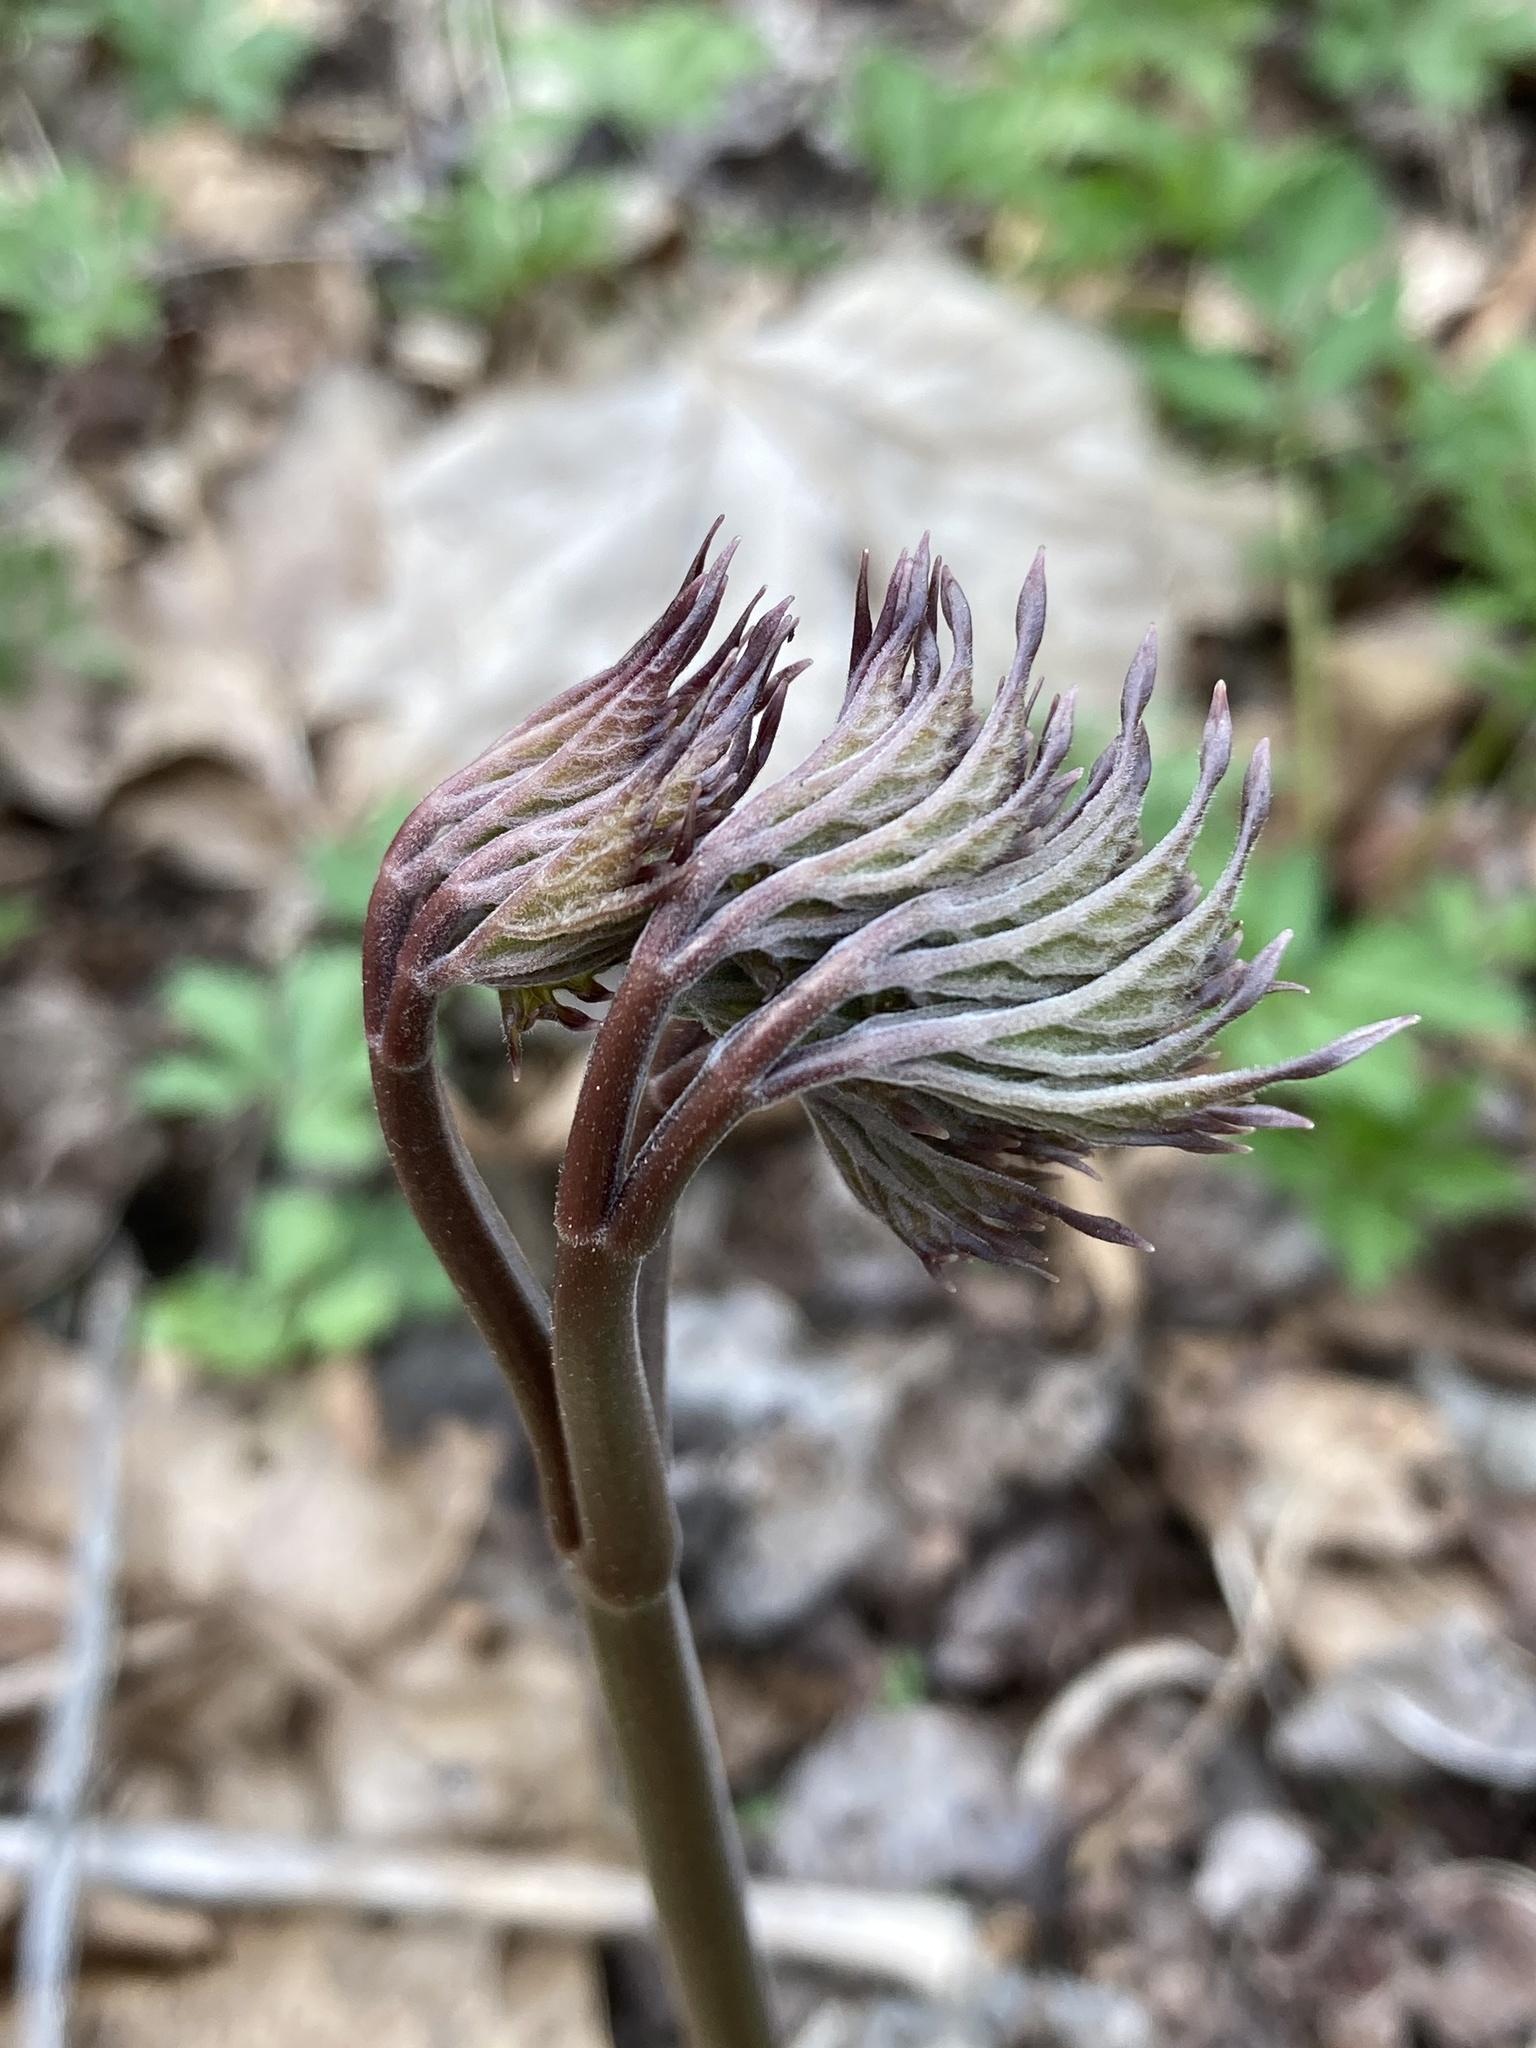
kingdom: Plantae
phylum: Tracheophyta
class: Magnoliopsida
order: Ranunculales
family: Berberidaceae
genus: Caulophyllum
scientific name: Caulophyllum giganteum
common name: Blue cohosh
